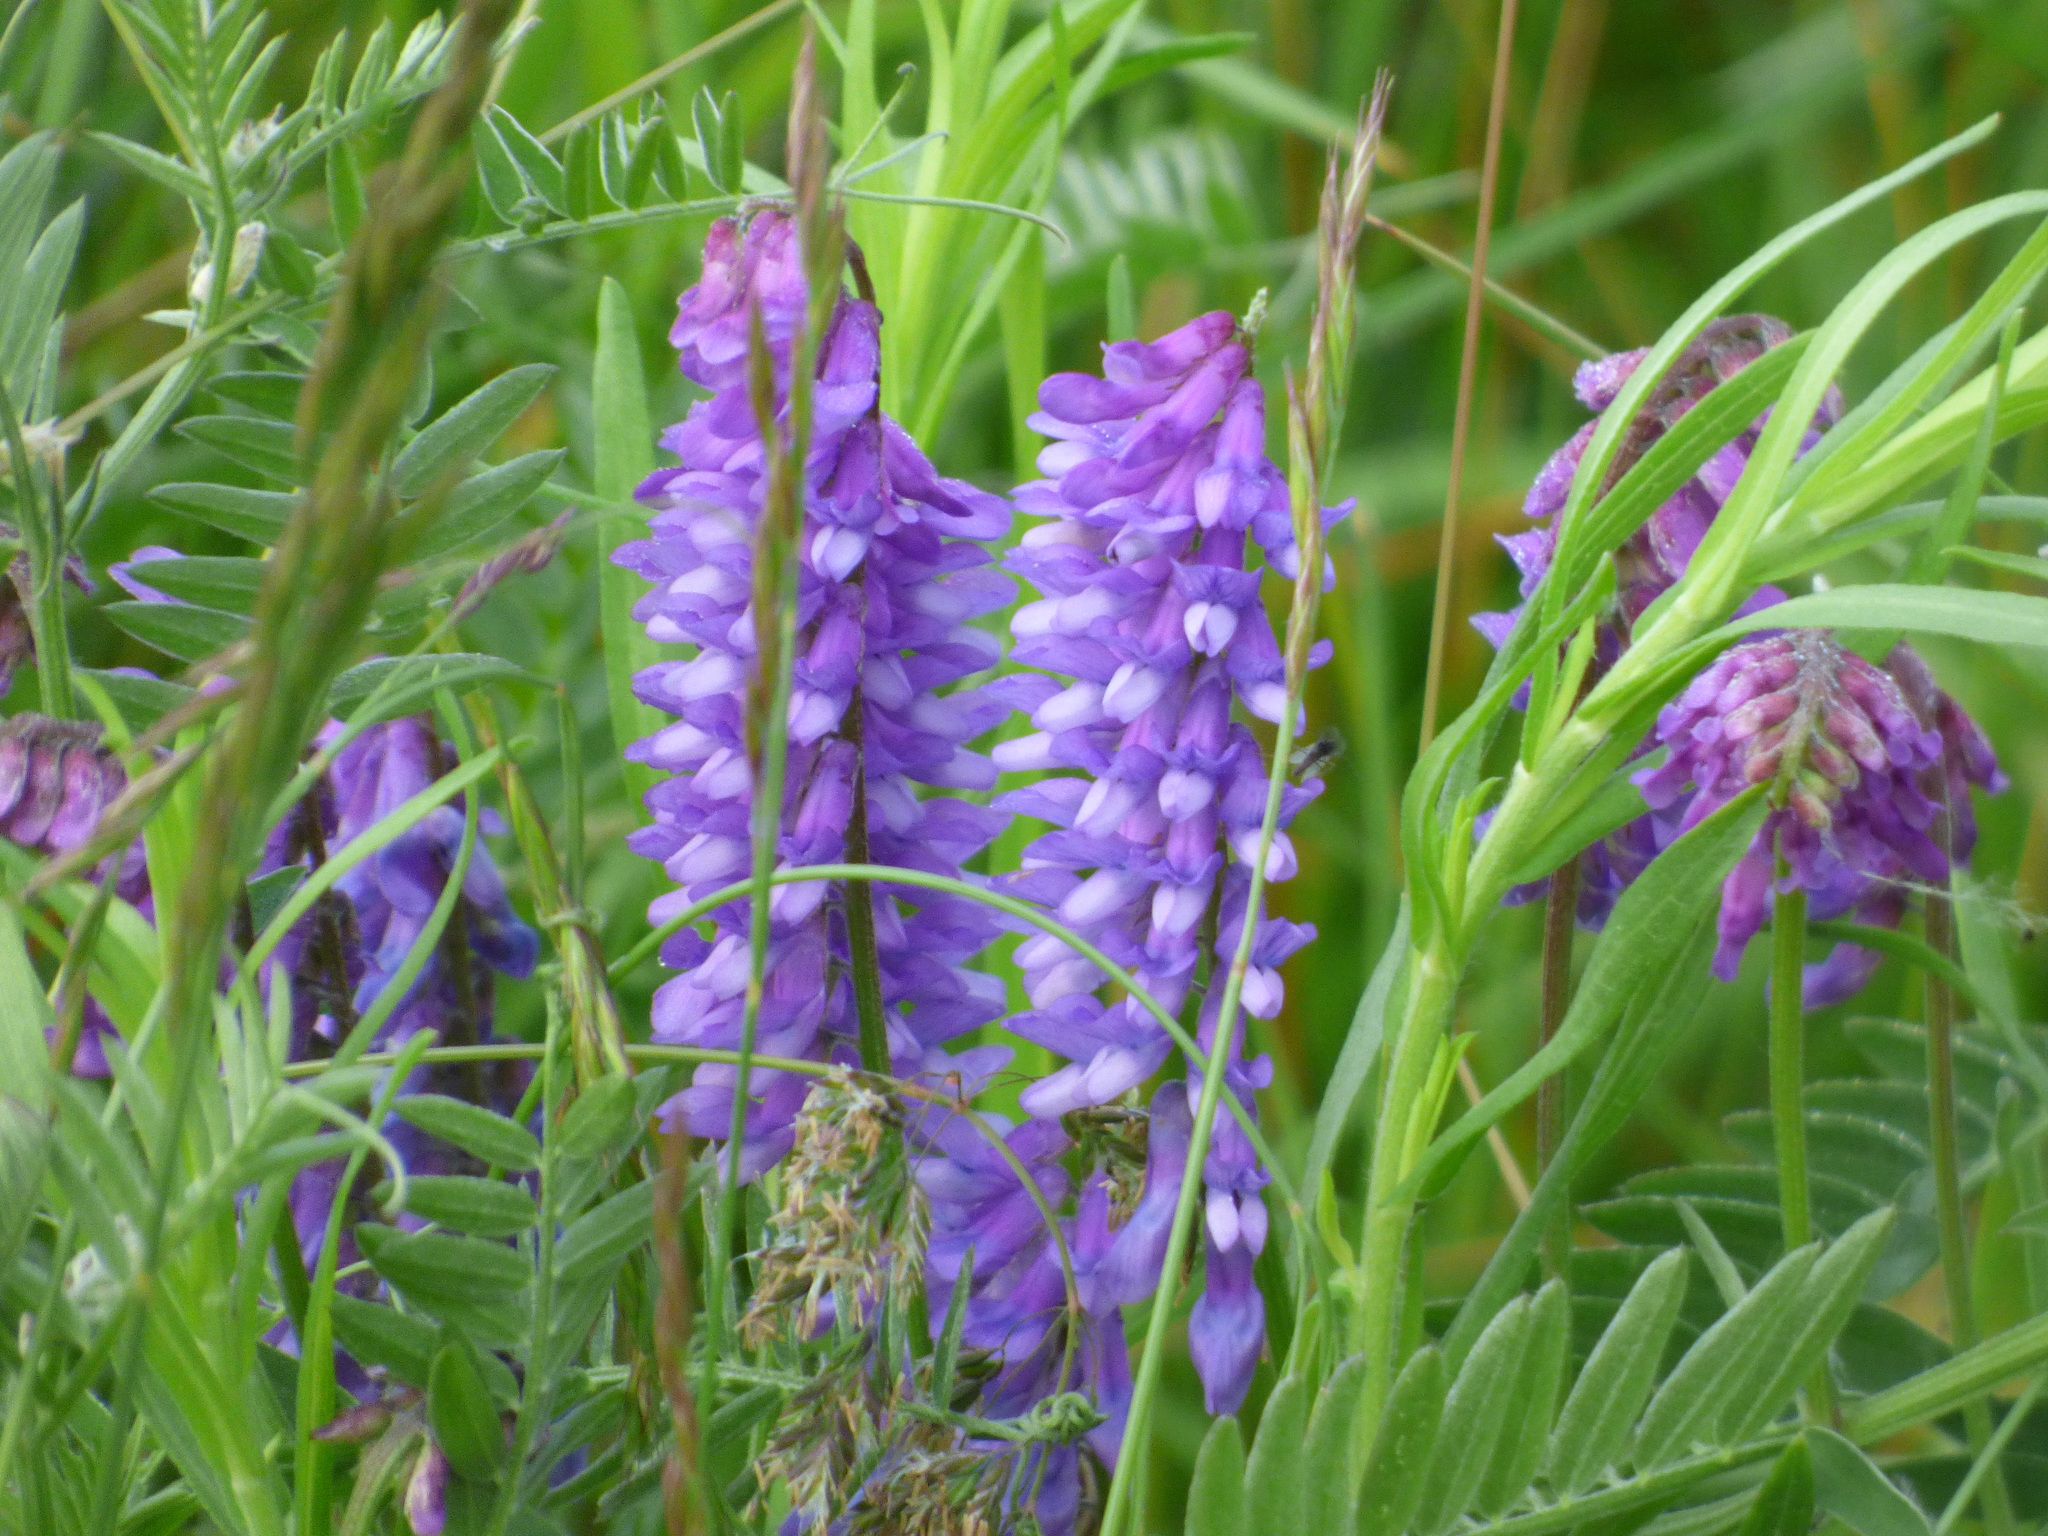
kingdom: Plantae
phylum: Tracheophyta
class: Magnoliopsida
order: Fabales
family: Fabaceae
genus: Vicia
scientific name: Vicia cracca
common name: Bird vetch
